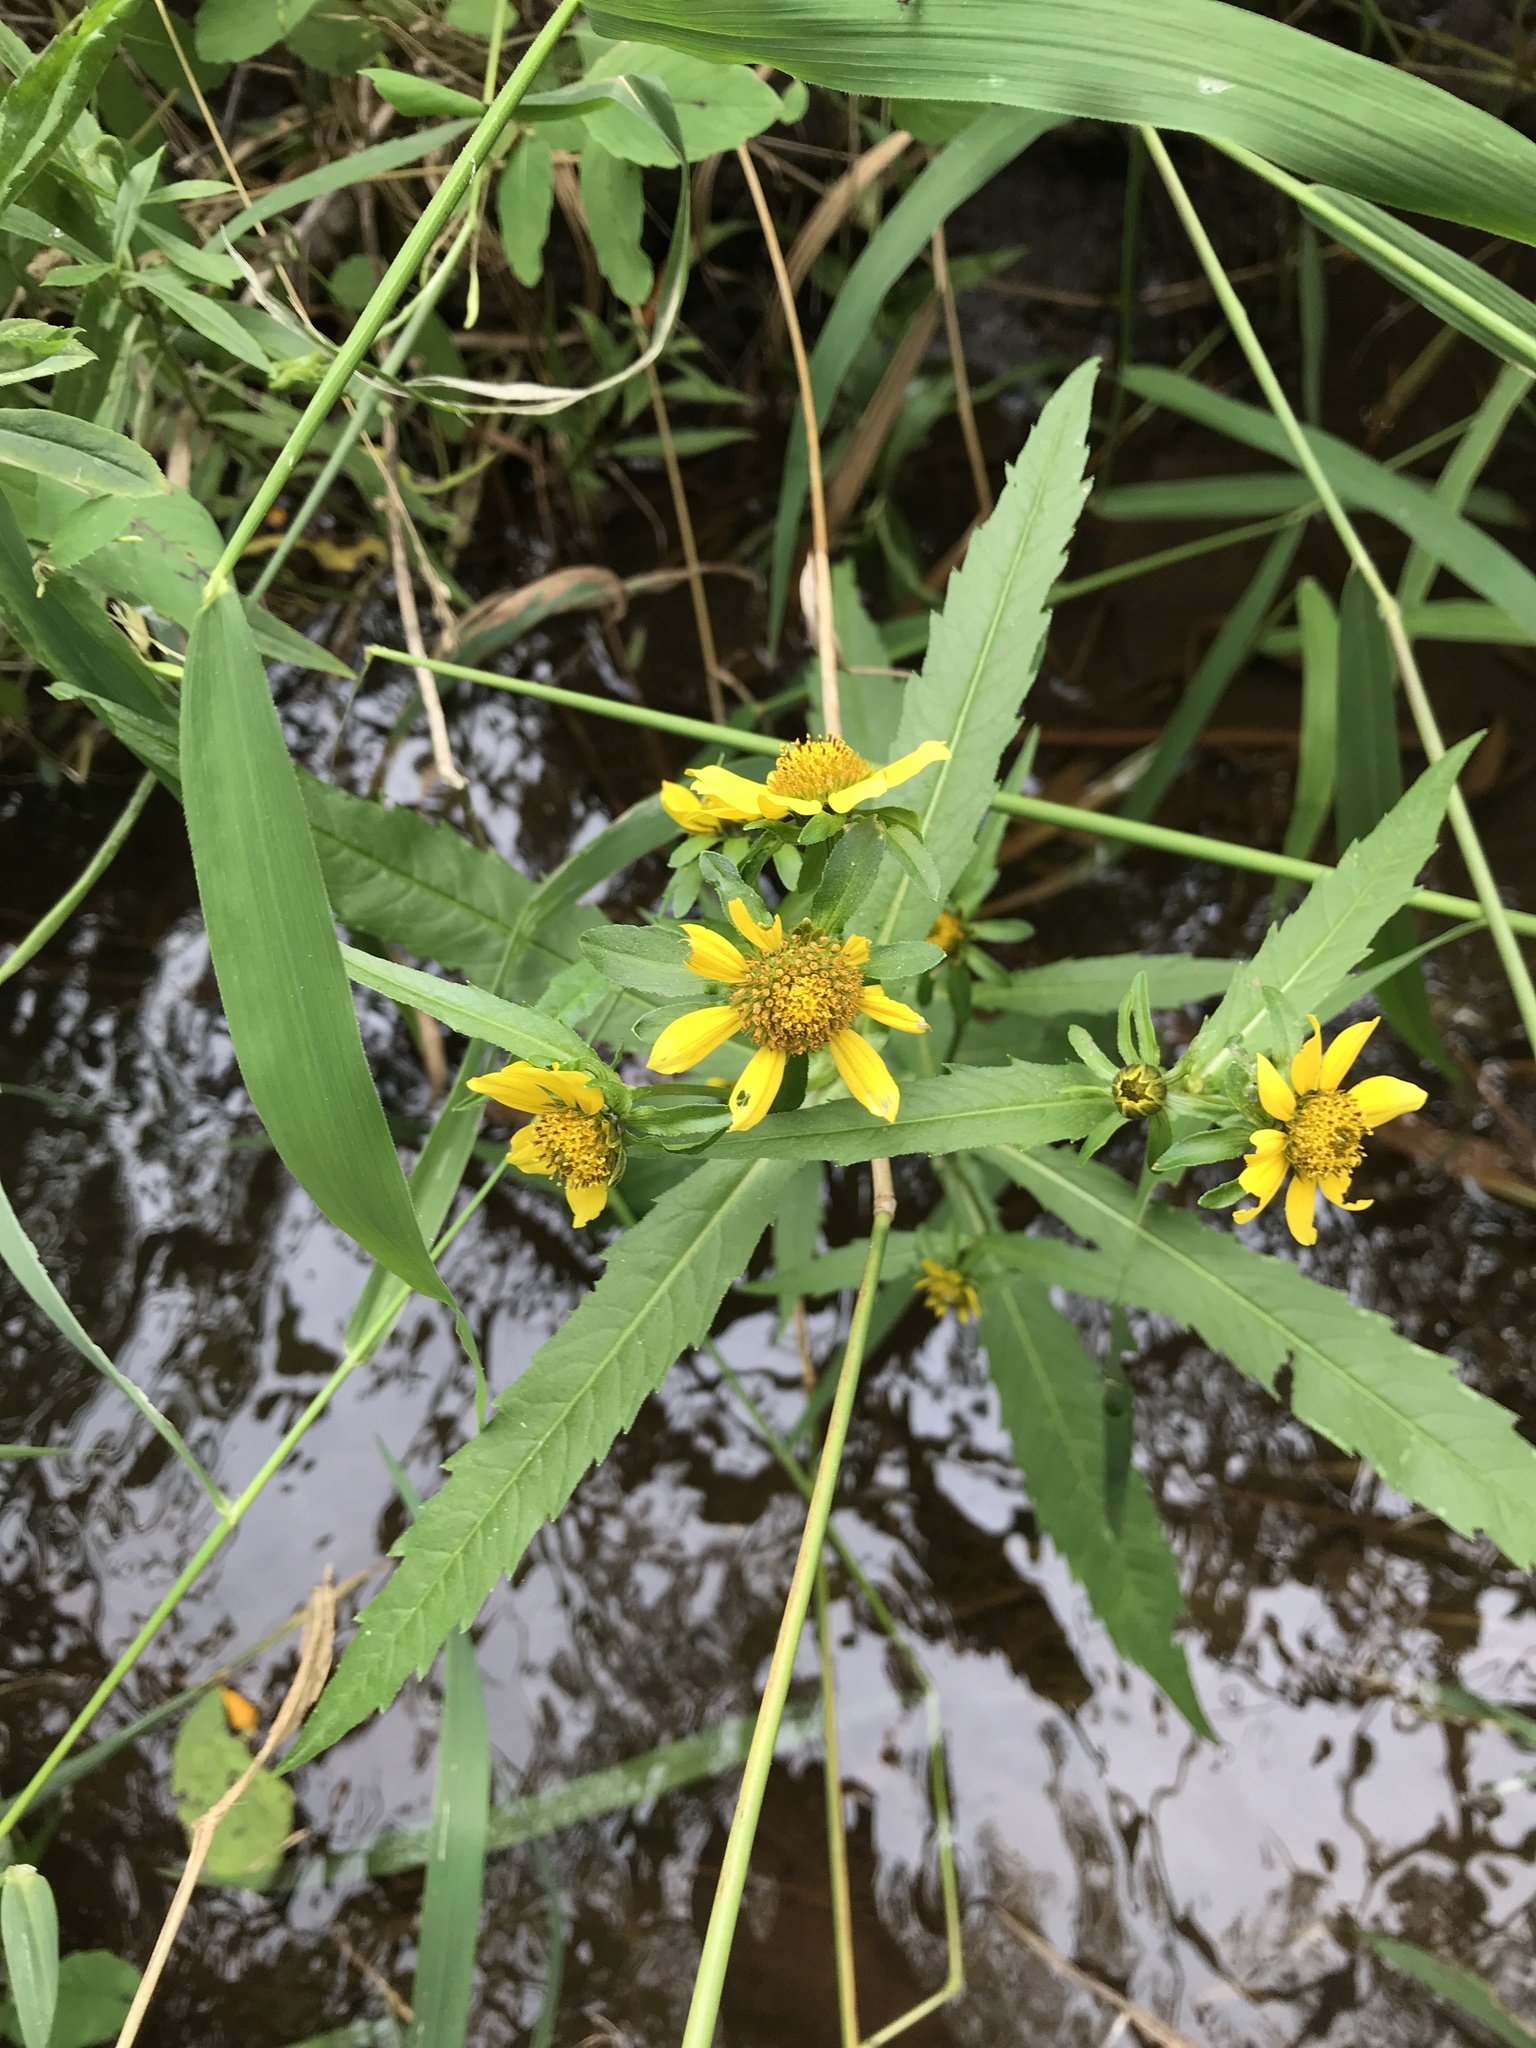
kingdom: Plantae
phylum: Tracheophyta
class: Magnoliopsida
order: Asterales
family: Asteraceae
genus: Bidens
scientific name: Bidens cernua
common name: Nodding bur-marigold
